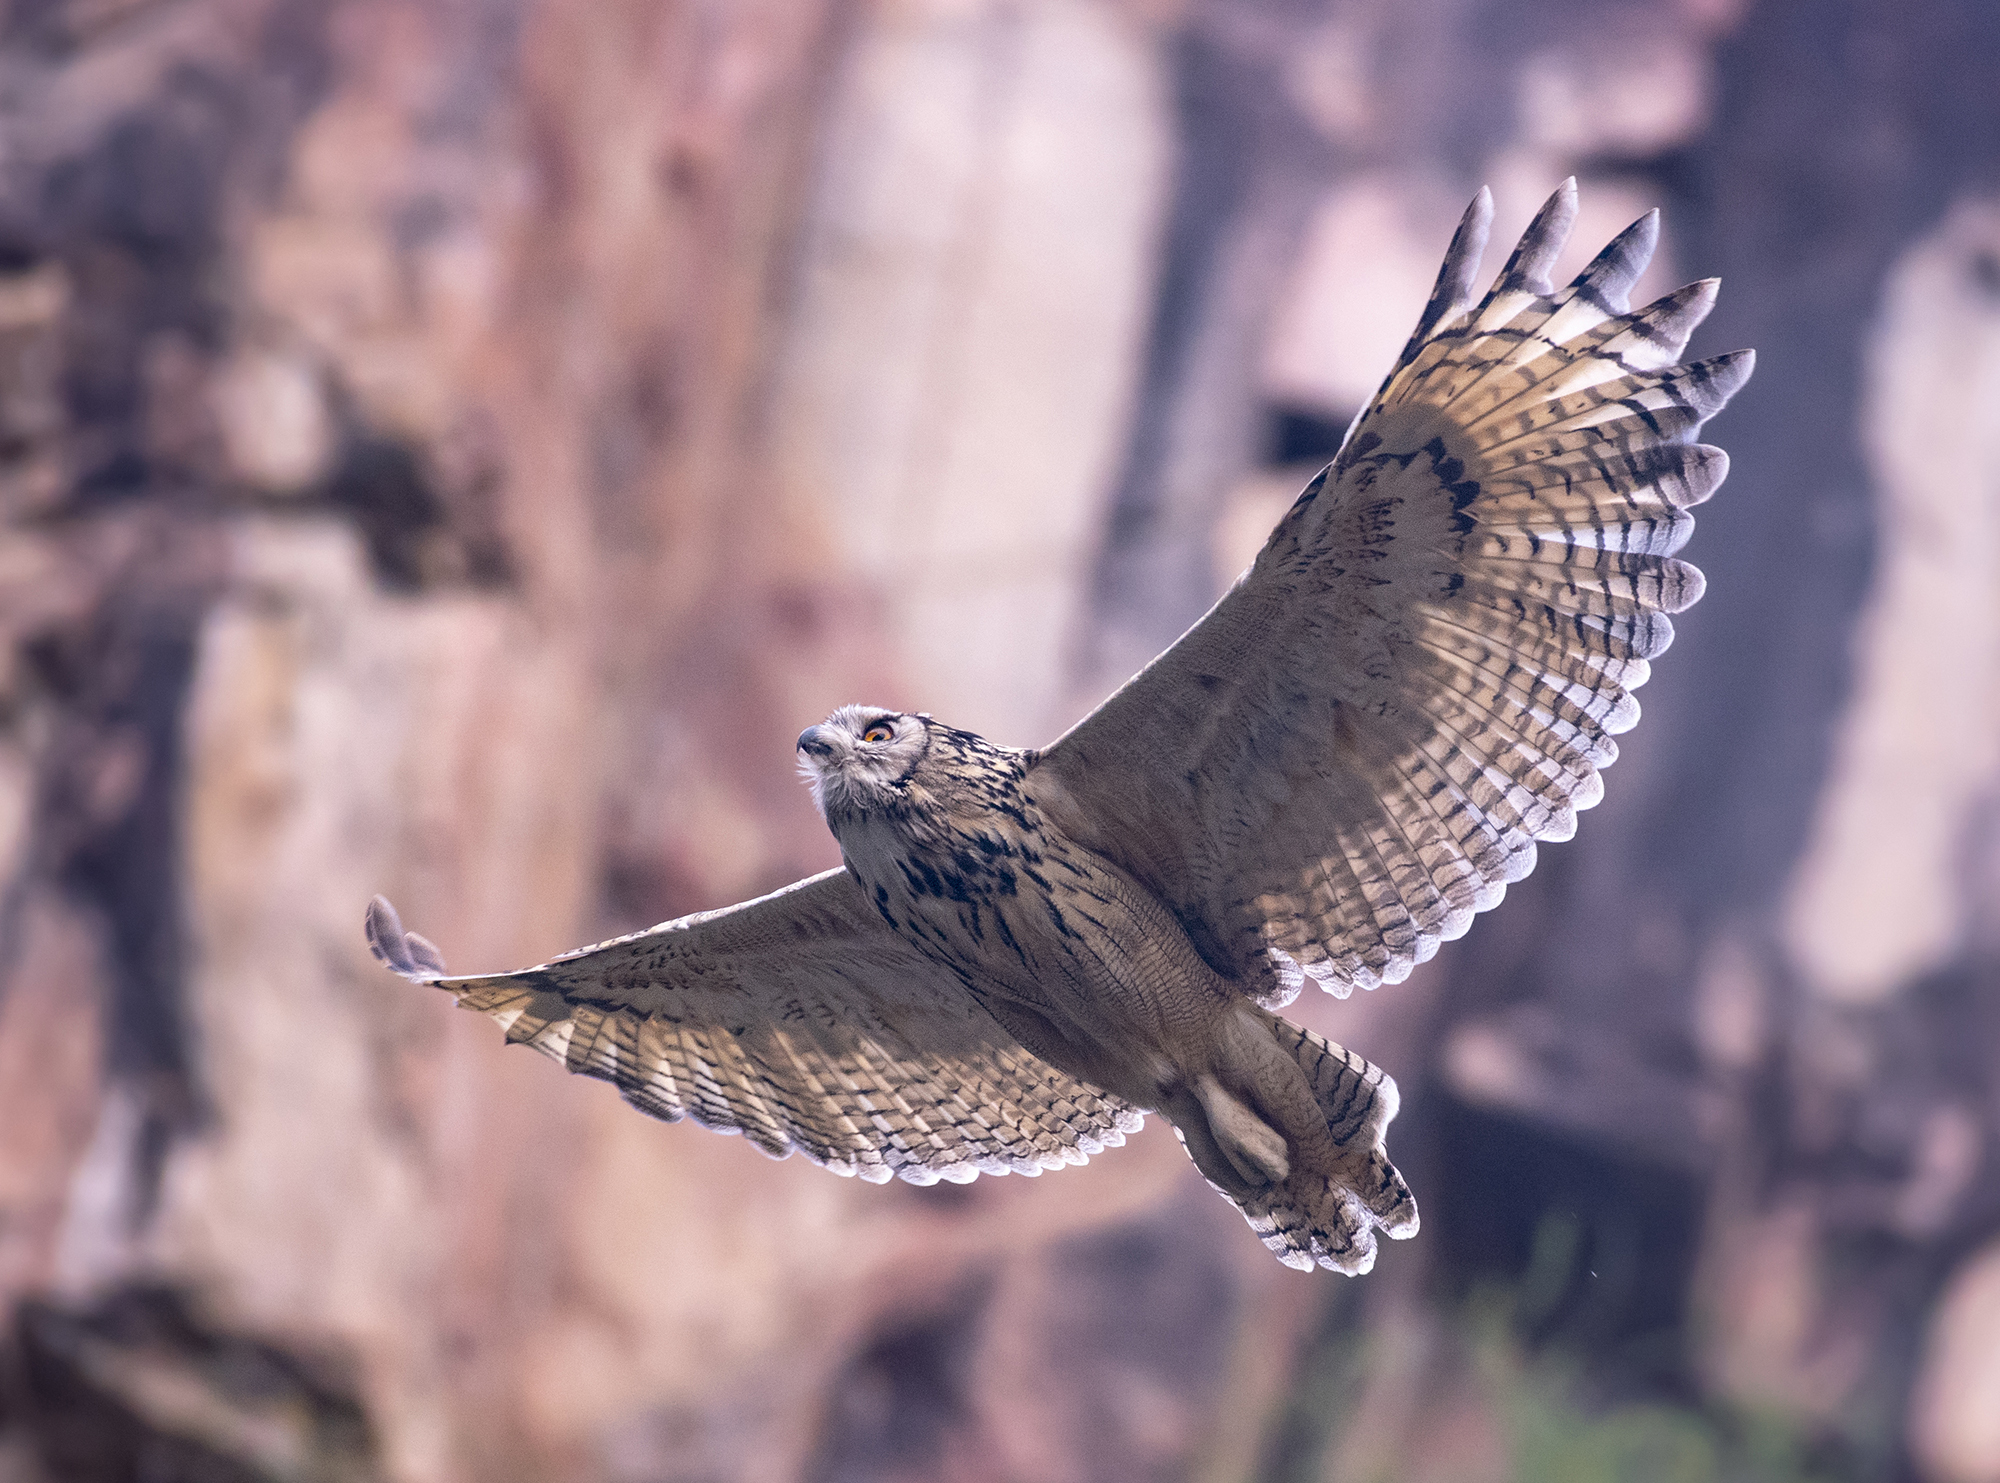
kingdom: Animalia
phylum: Chordata
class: Aves
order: Strigiformes
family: Strigidae
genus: Bubo
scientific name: Bubo bubo
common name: Eurasian eagle-owl
